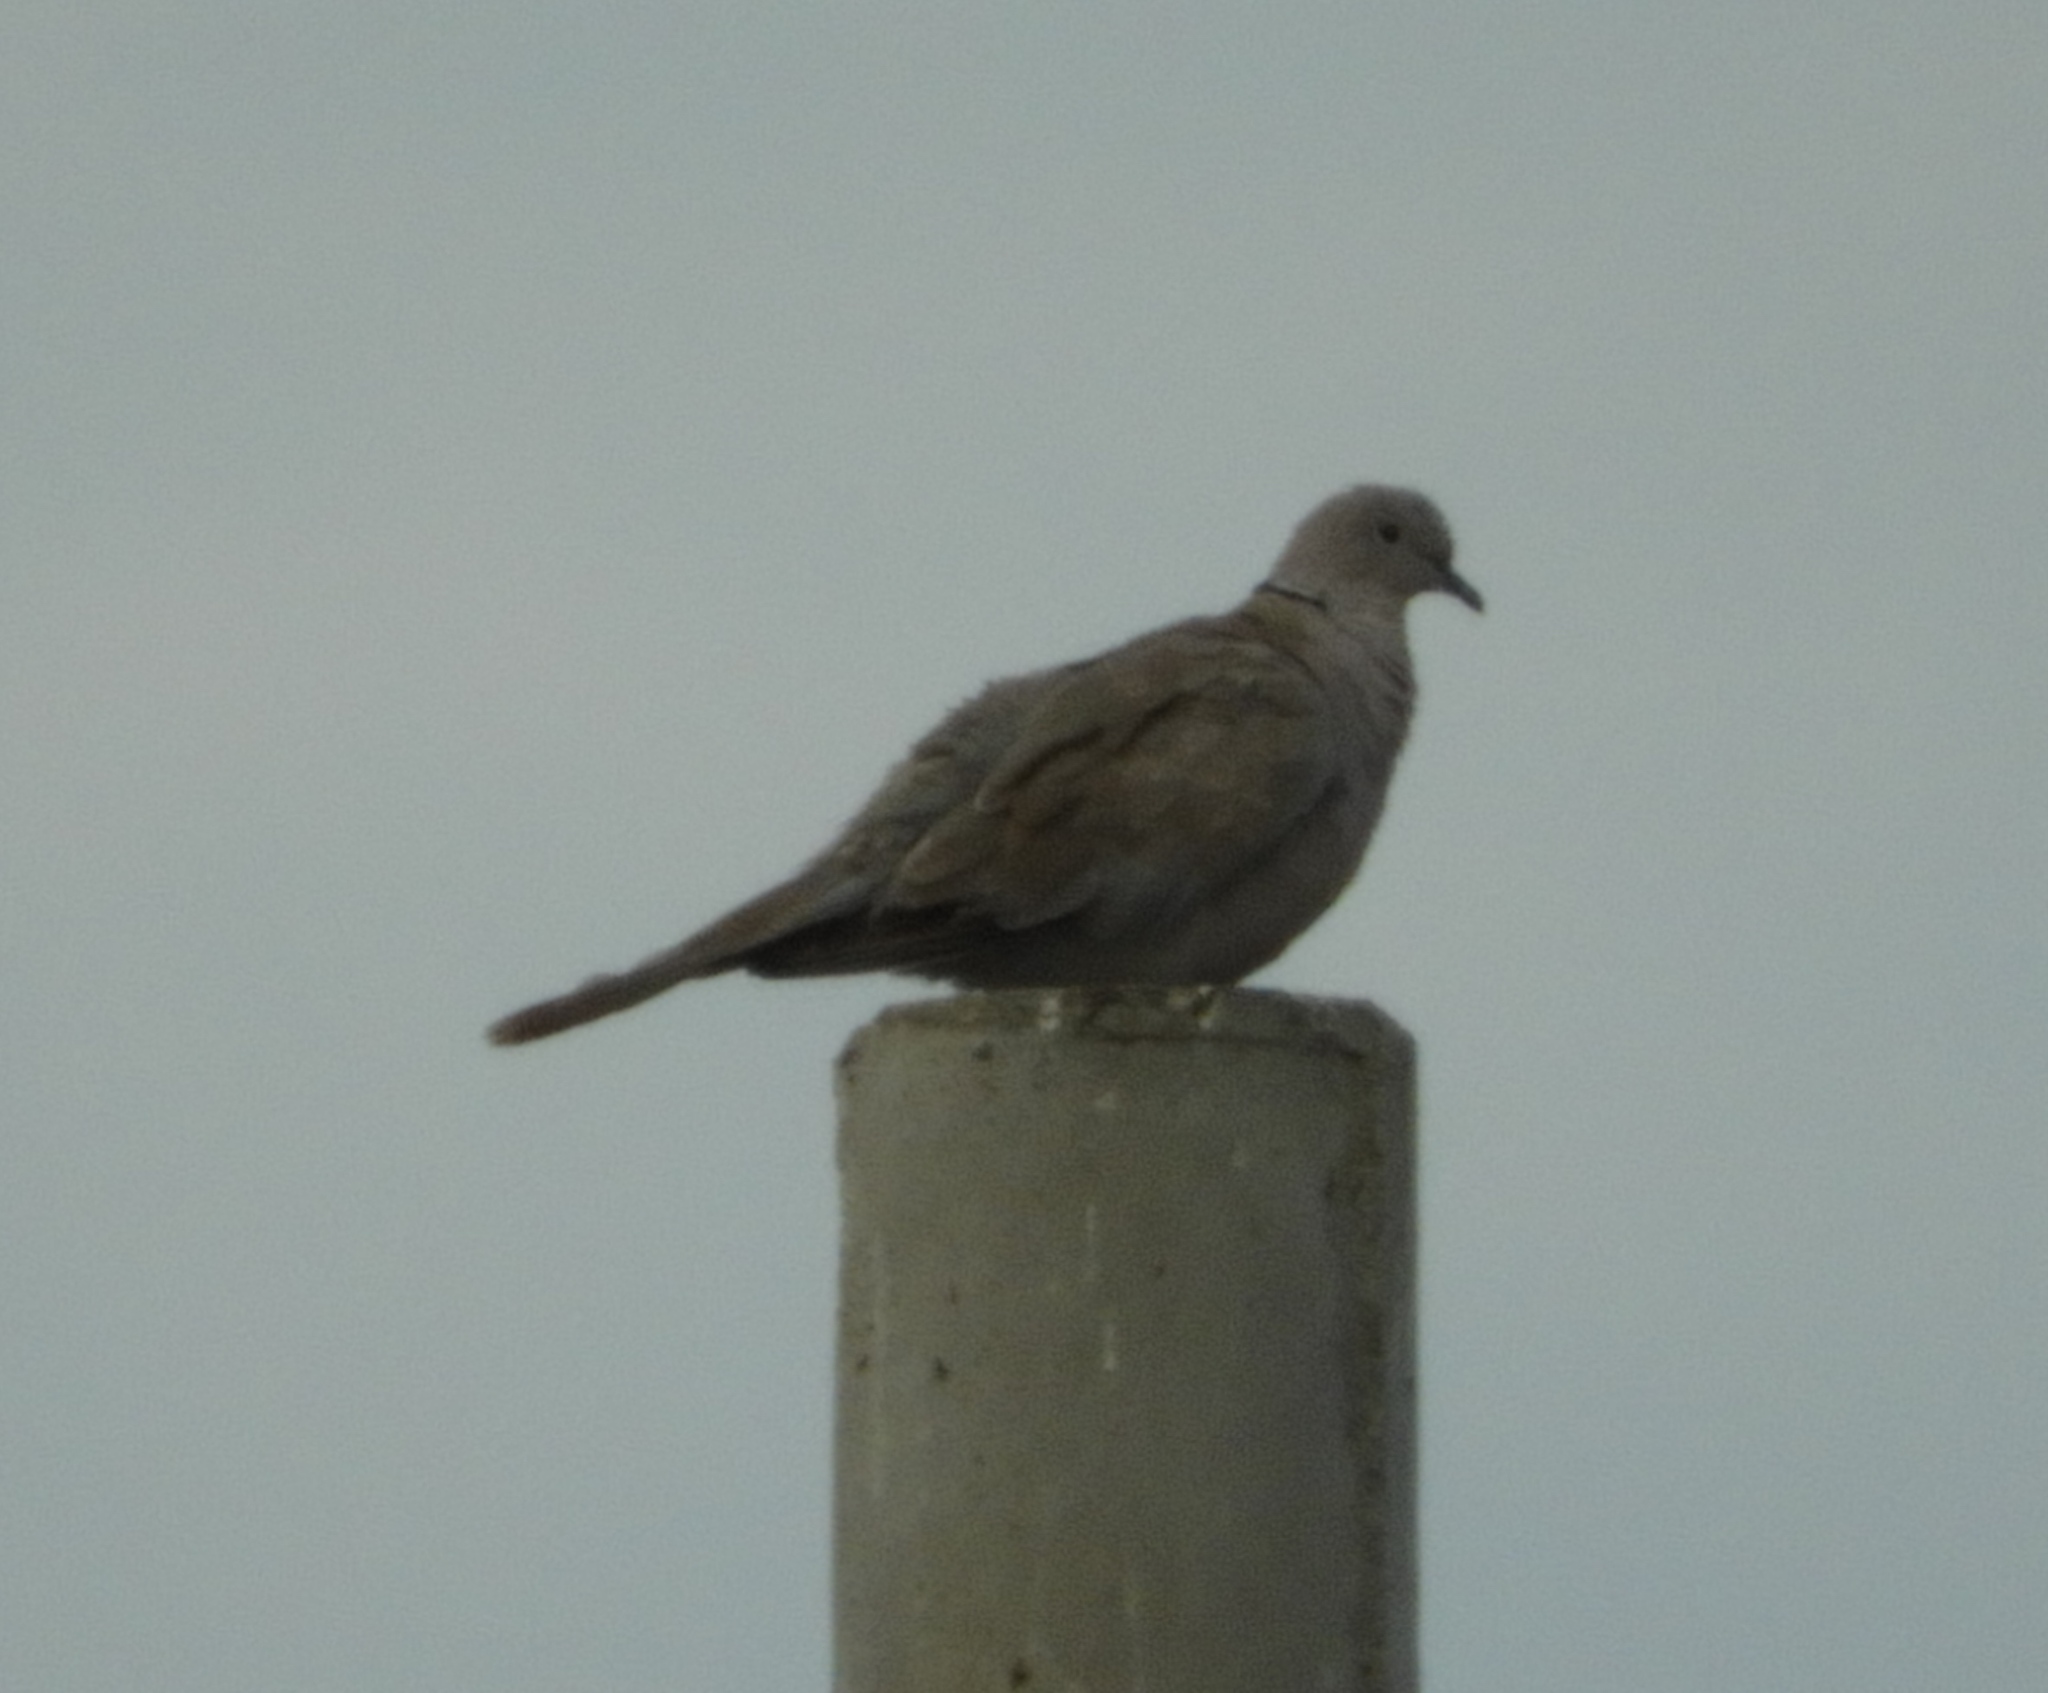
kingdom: Animalia
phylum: Chordata
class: Aves
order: Columbiformes
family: Columbidae
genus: Streptopelia
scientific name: Streptopelia decaocto
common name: Eurasian collared dove
